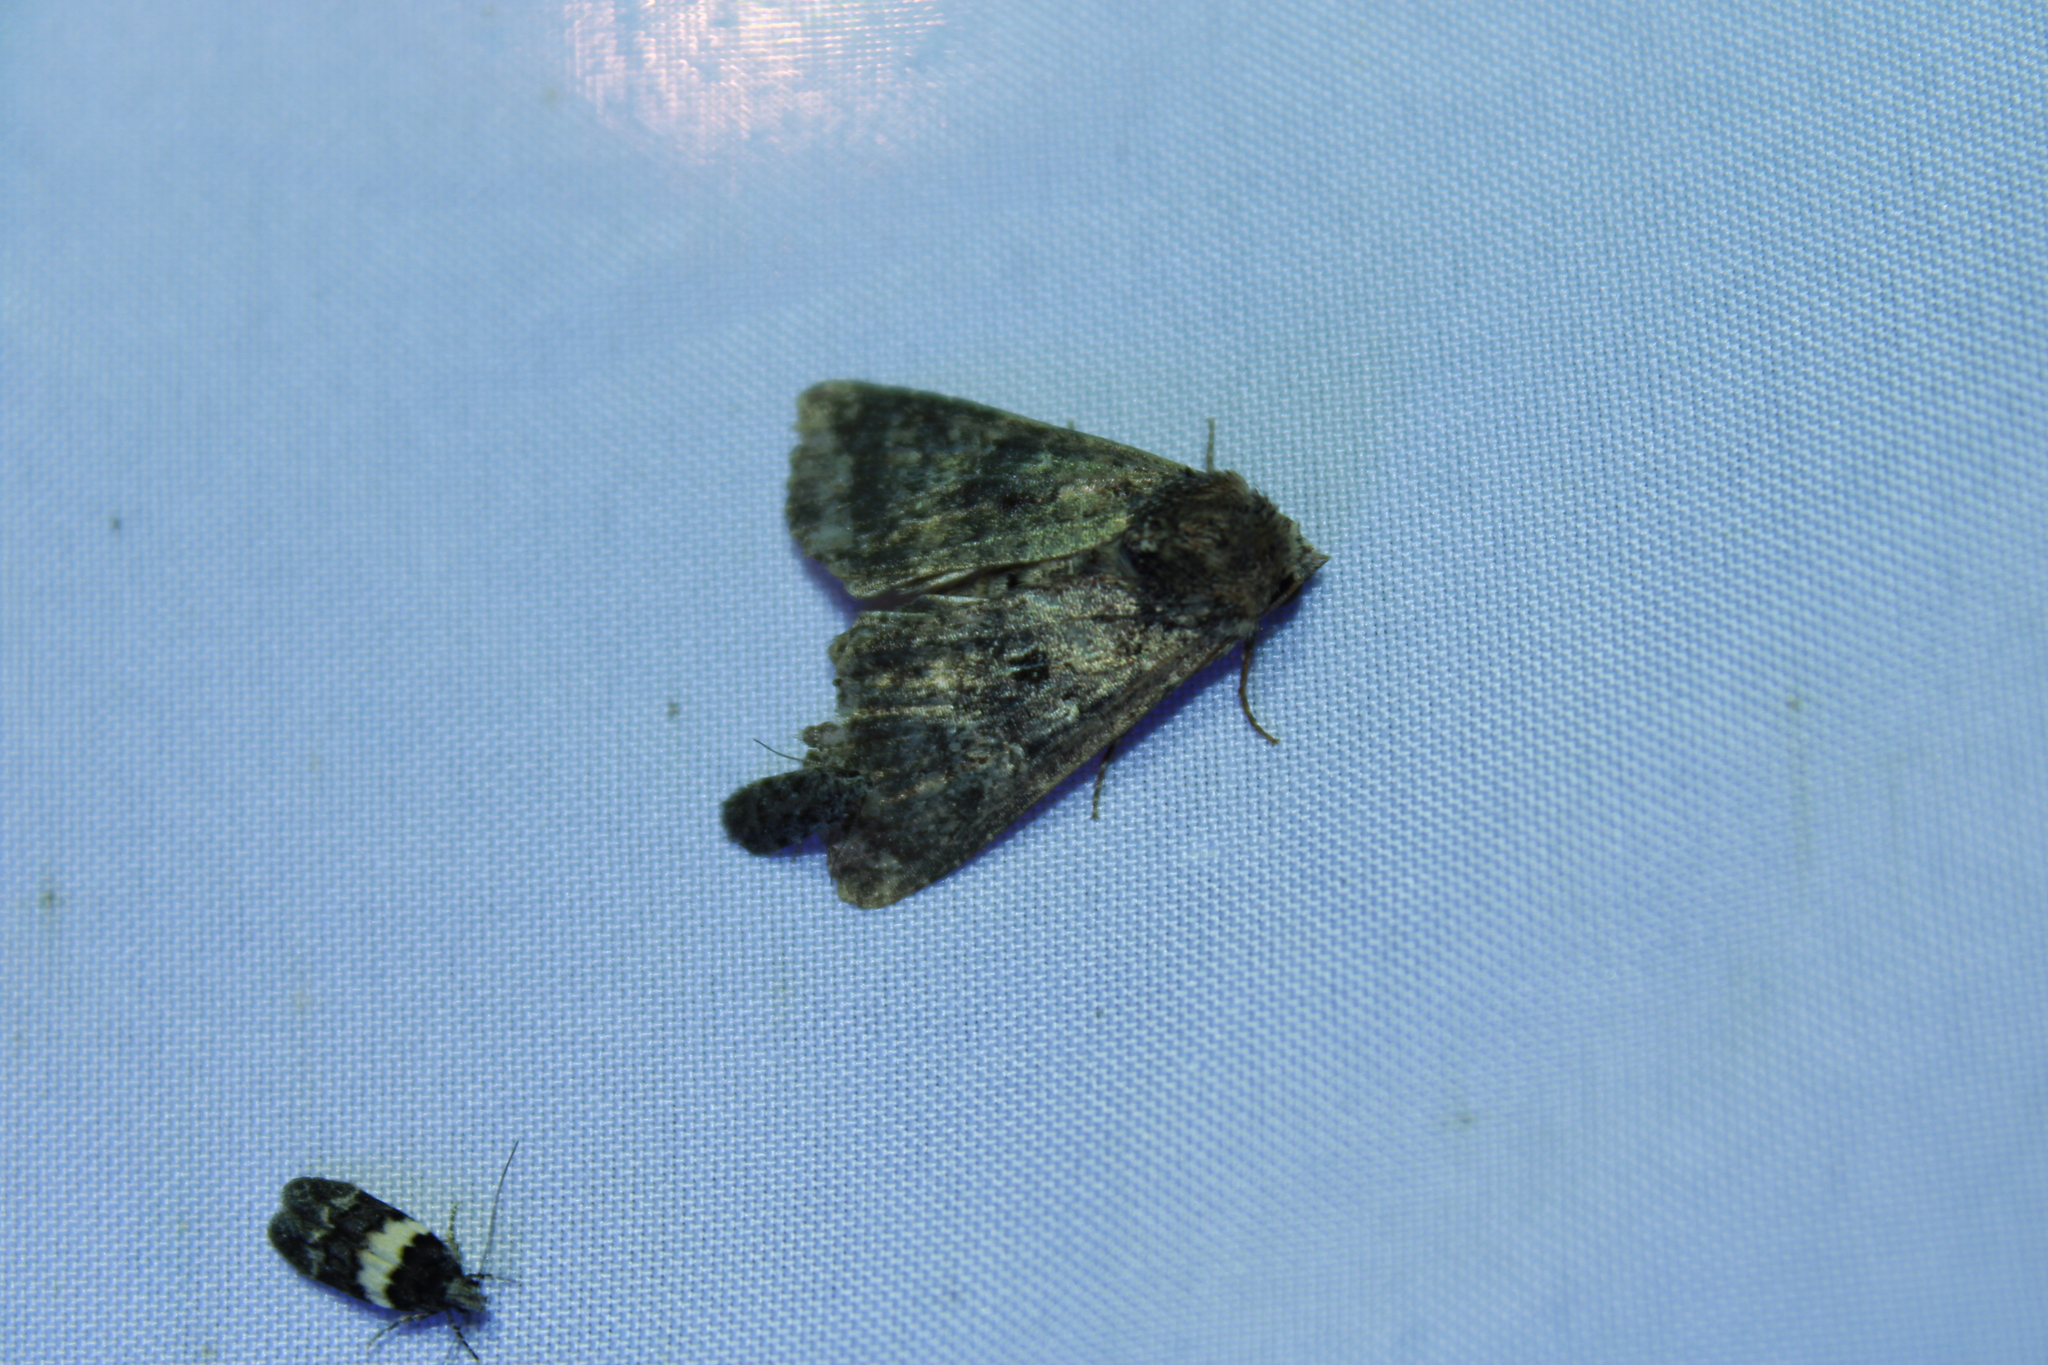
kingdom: Animalia
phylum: Arthropoda
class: Insecta
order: Lepidoptera
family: Noctuidae
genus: Condica
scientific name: Condica vecors
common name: Dusky groundling
